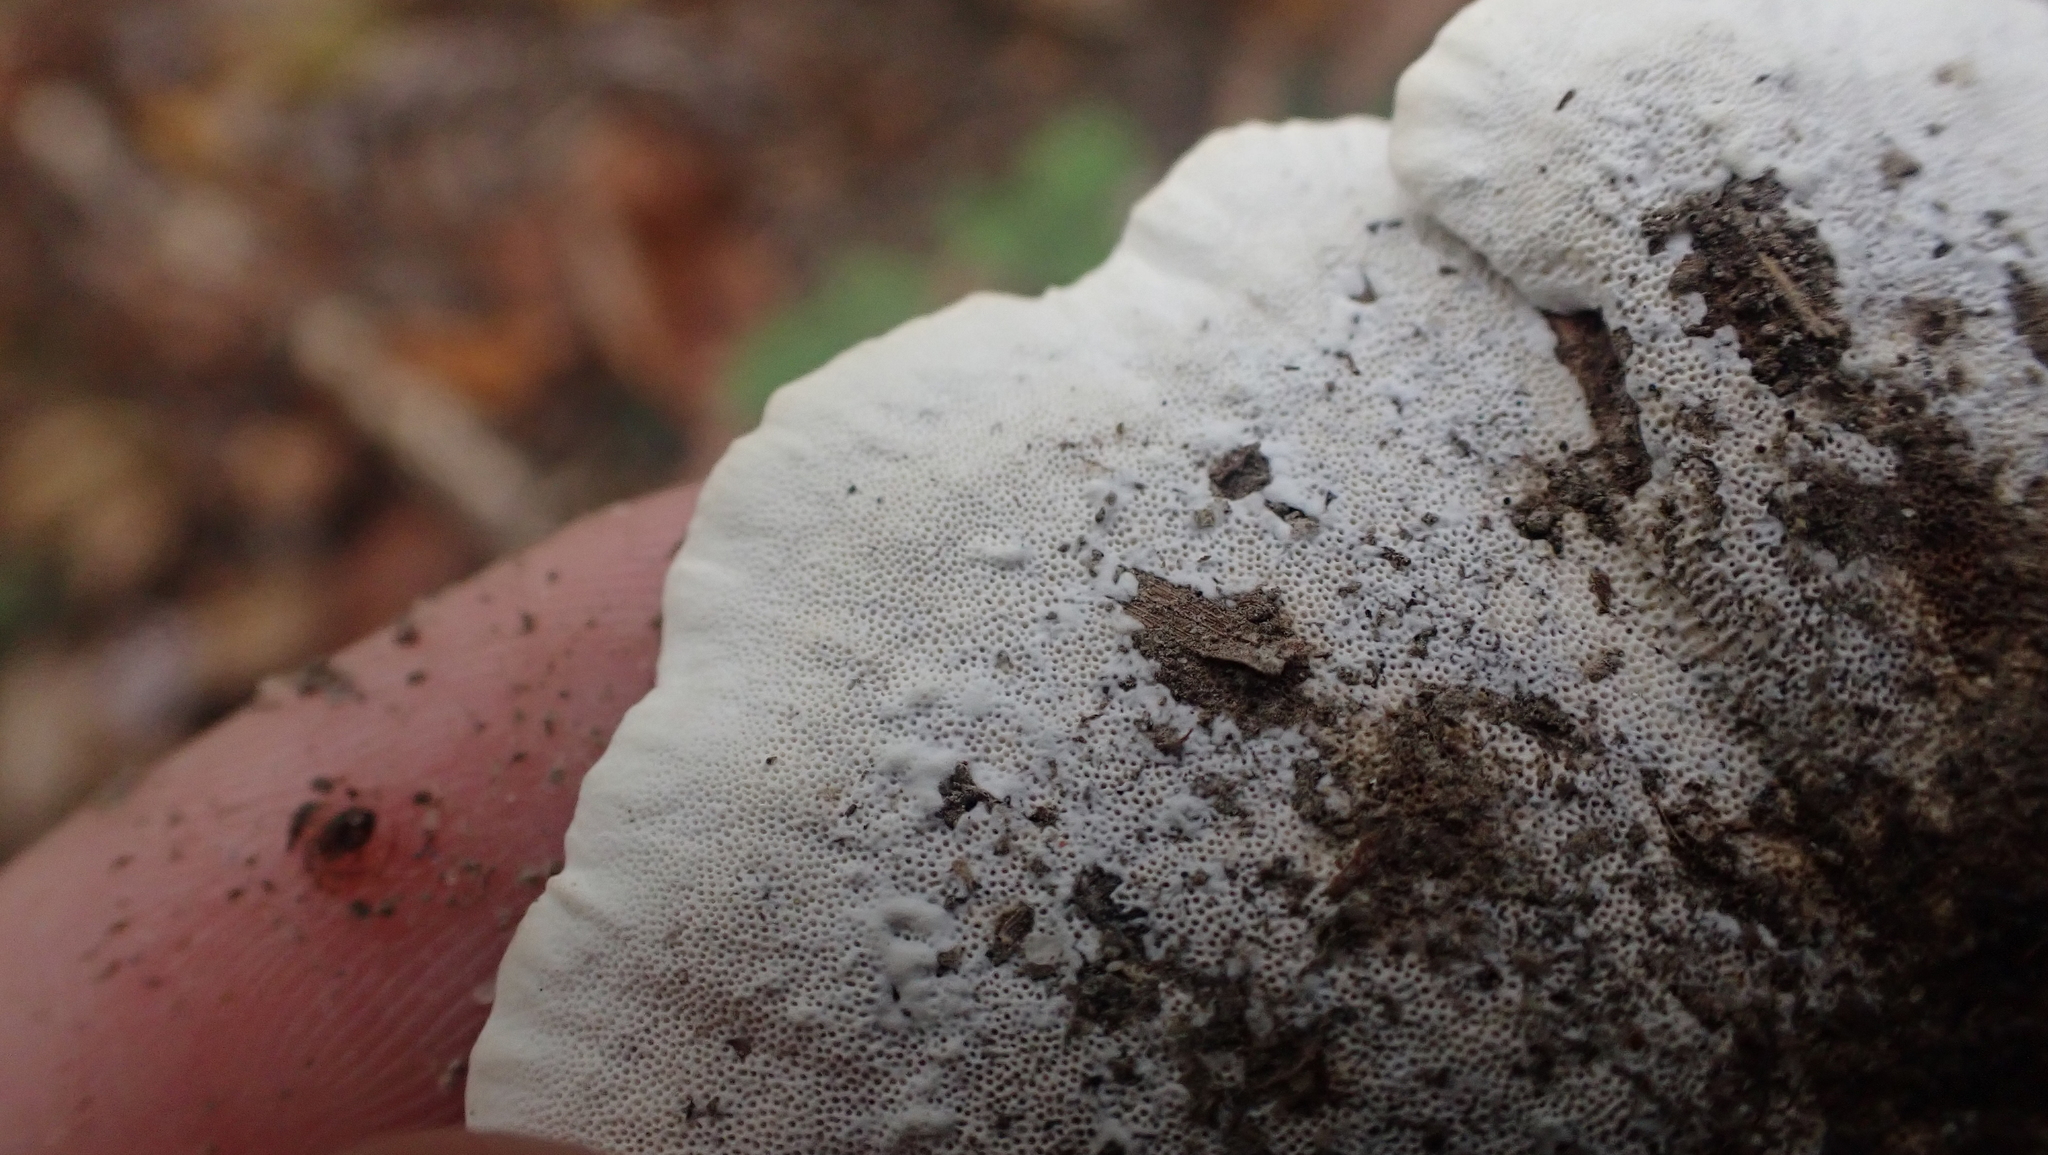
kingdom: Fungi
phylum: Basidiomycota
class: Agaricomycetes
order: Polyporales
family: Polyporaceae
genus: Trametes
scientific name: Trametes versicolor
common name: Turkeytail
